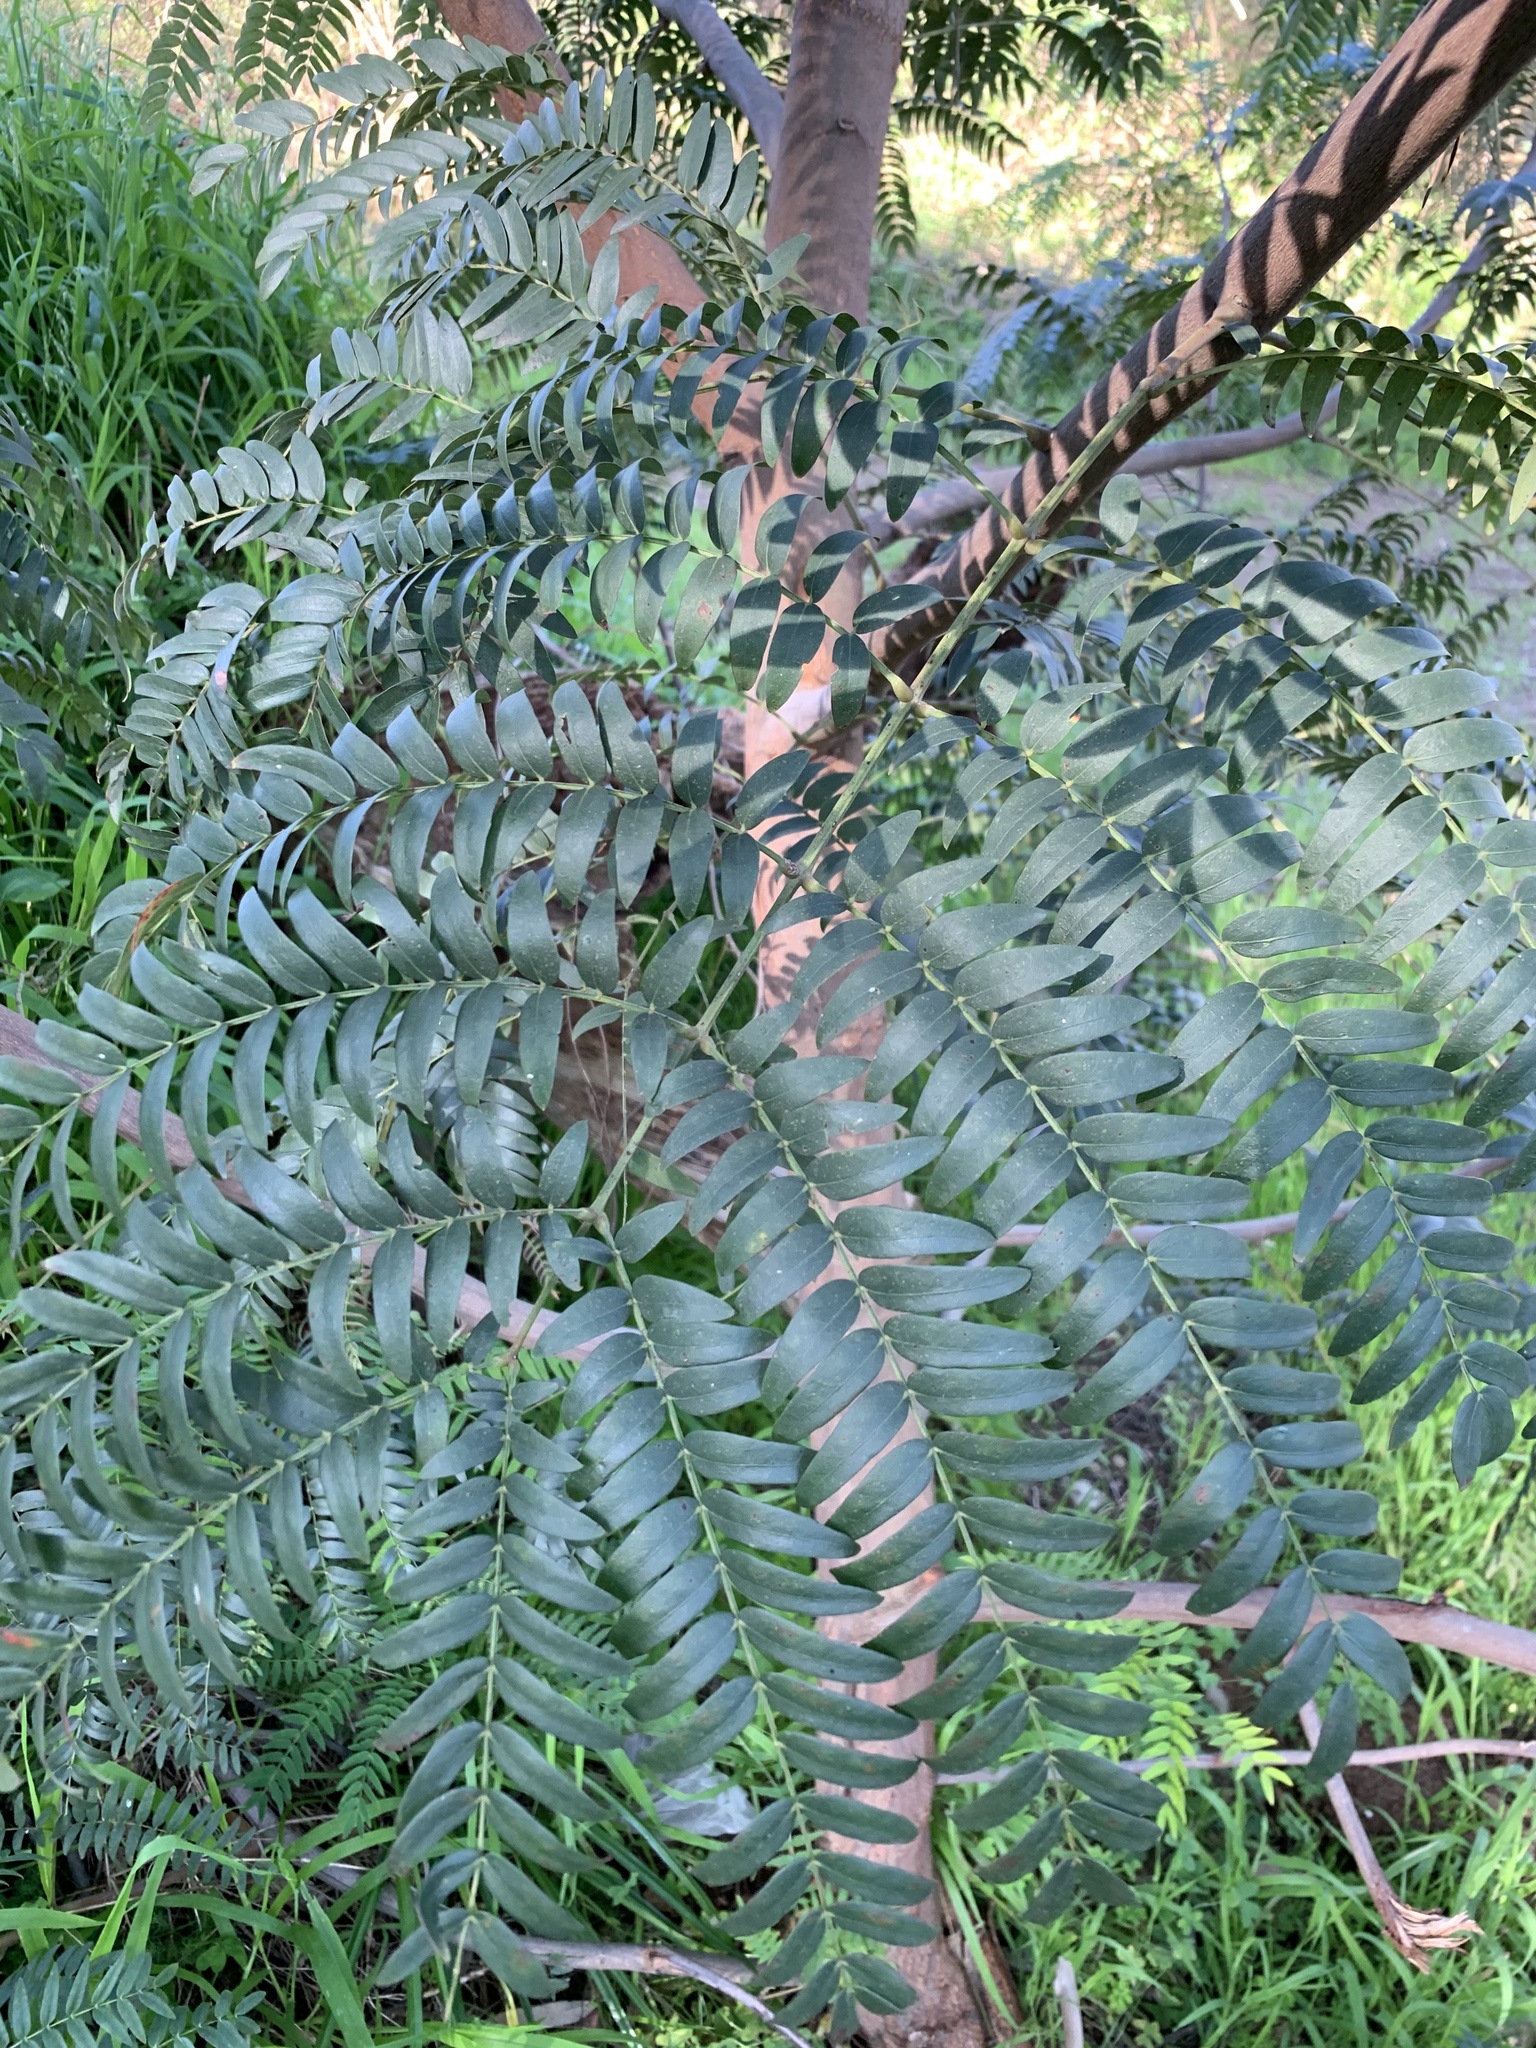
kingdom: Plantae
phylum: Tracheophyta
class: Magnoliopsida
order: Fabales
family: Fabaceae
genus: Acacia
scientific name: Acacia elata
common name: Cedar wattle
